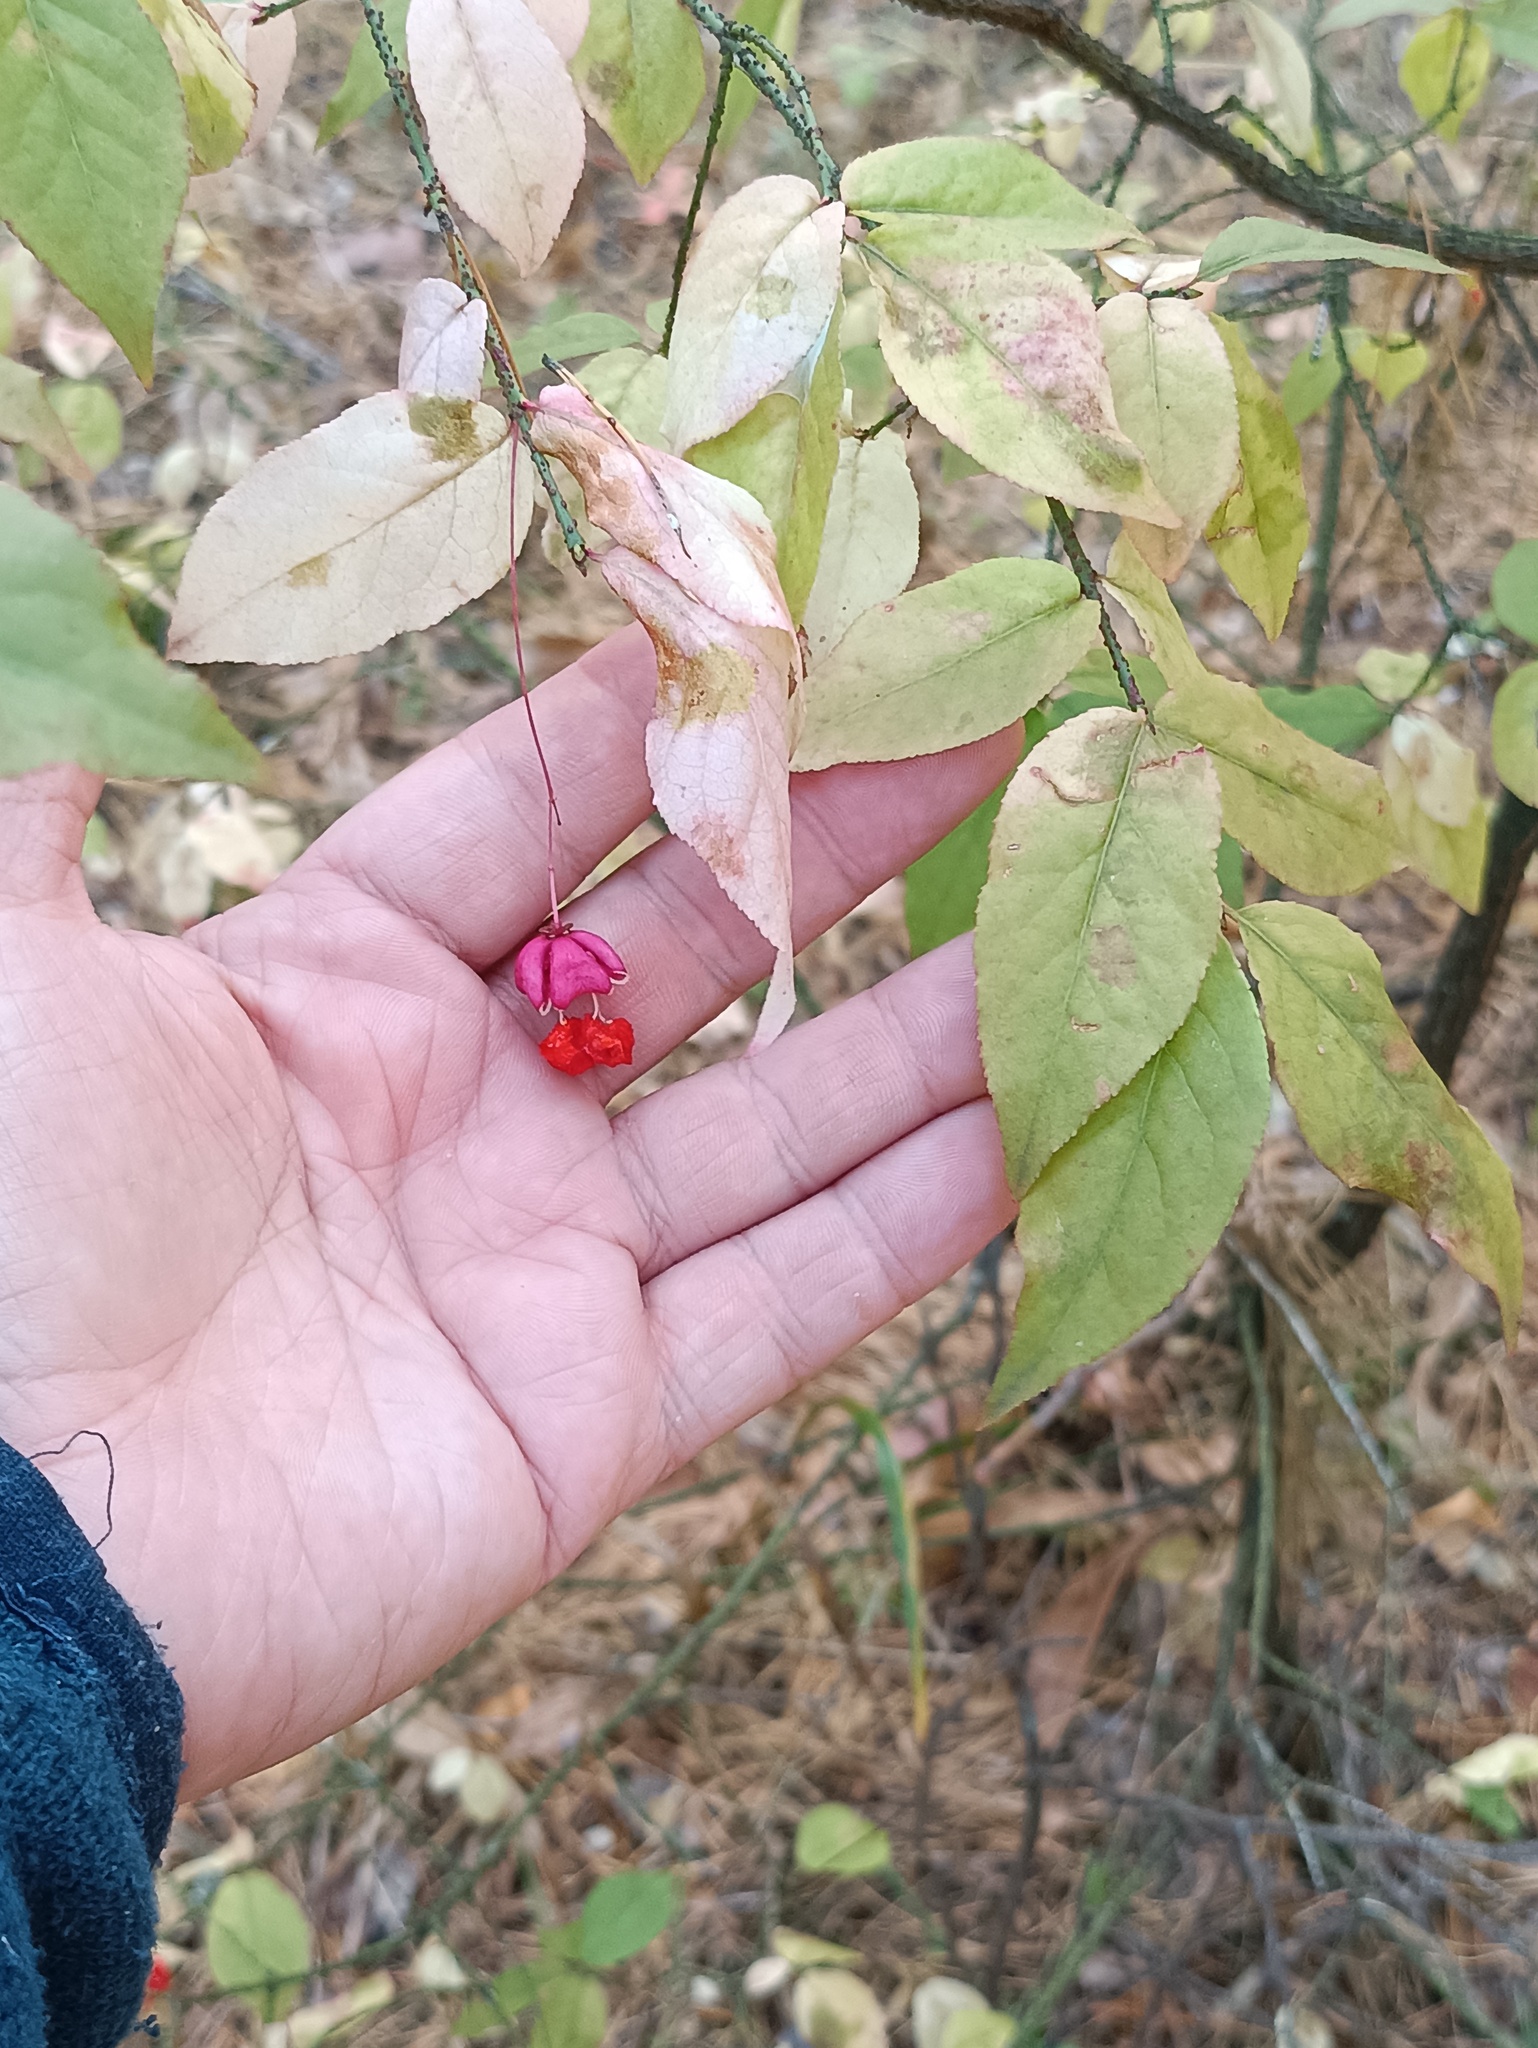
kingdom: Plantae
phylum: Tracheophyta
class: Magnoliopsida
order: Celastrales
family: Celastraceae
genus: Euonymus
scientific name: Euonymus verrucosus
